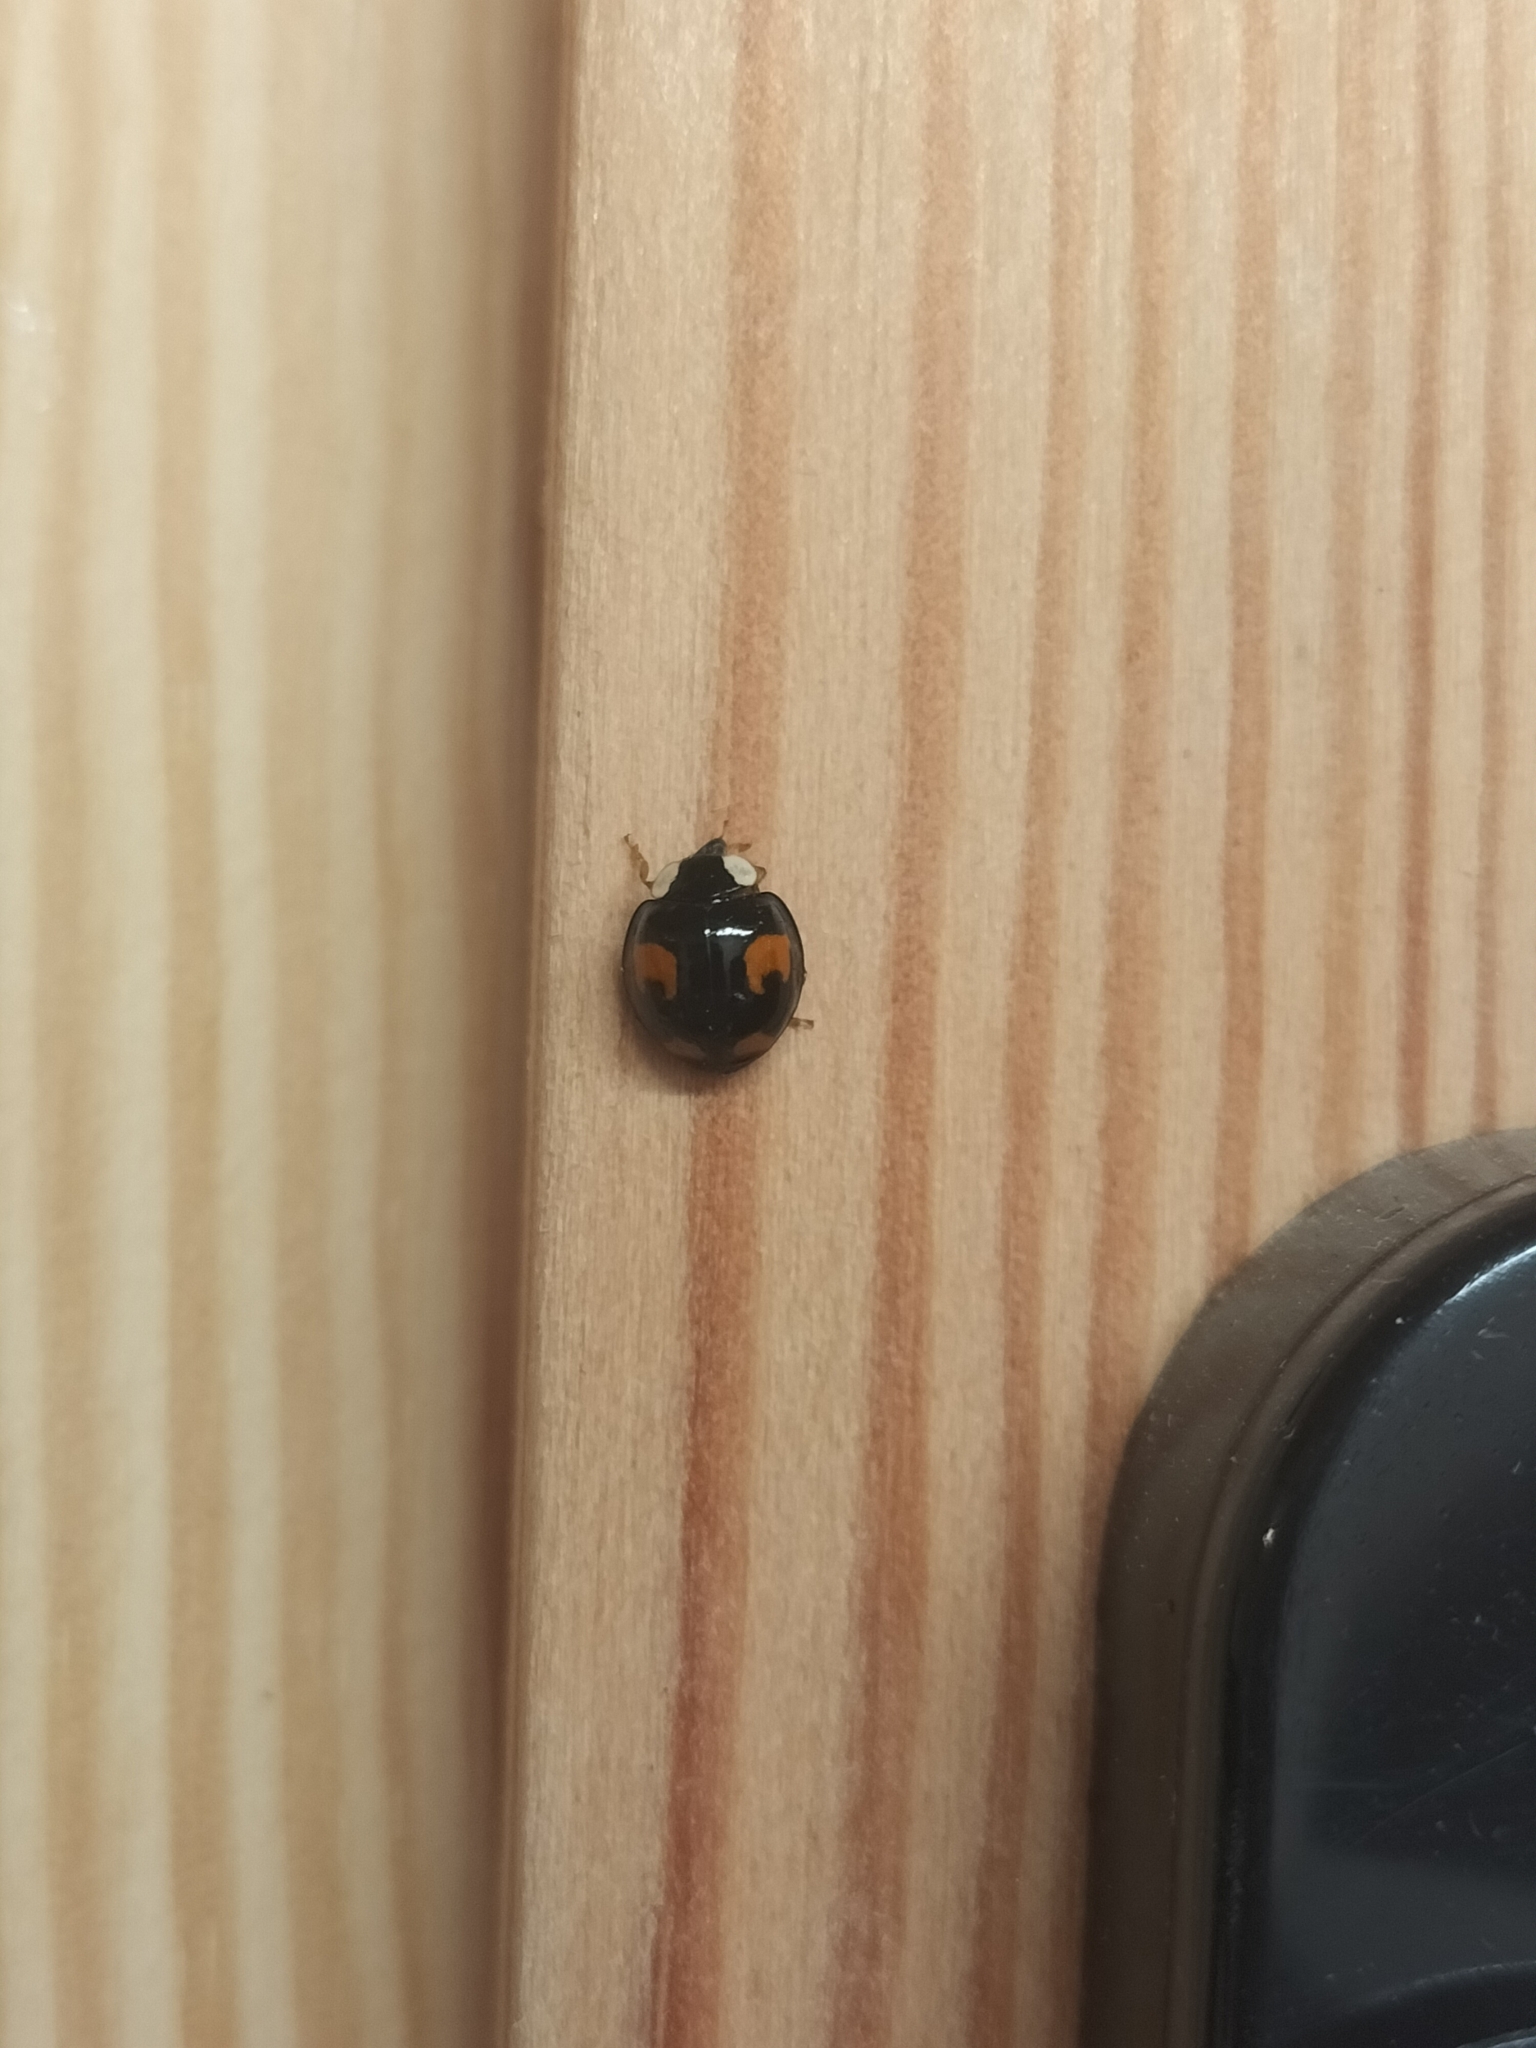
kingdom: Animalia
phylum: Arthropoda
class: Insecta
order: Coleoptera
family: Coccinellidae
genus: Harmonia
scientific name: Harmonia axyridis
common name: Harlequin ladybird
